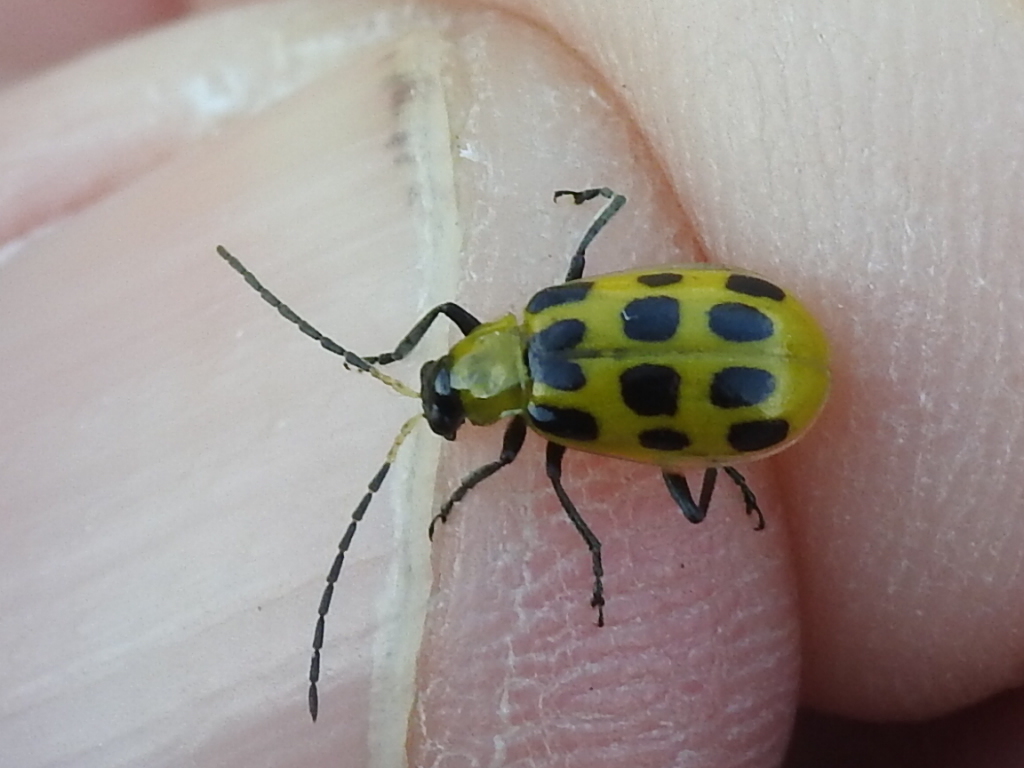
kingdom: Animalia
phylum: Arthropoda
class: Insecta
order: Coleoptera
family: Chrysomelidae
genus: Diabrotica
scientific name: Diabrotica undecimpunctata
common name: Spotted cucumber beetle
